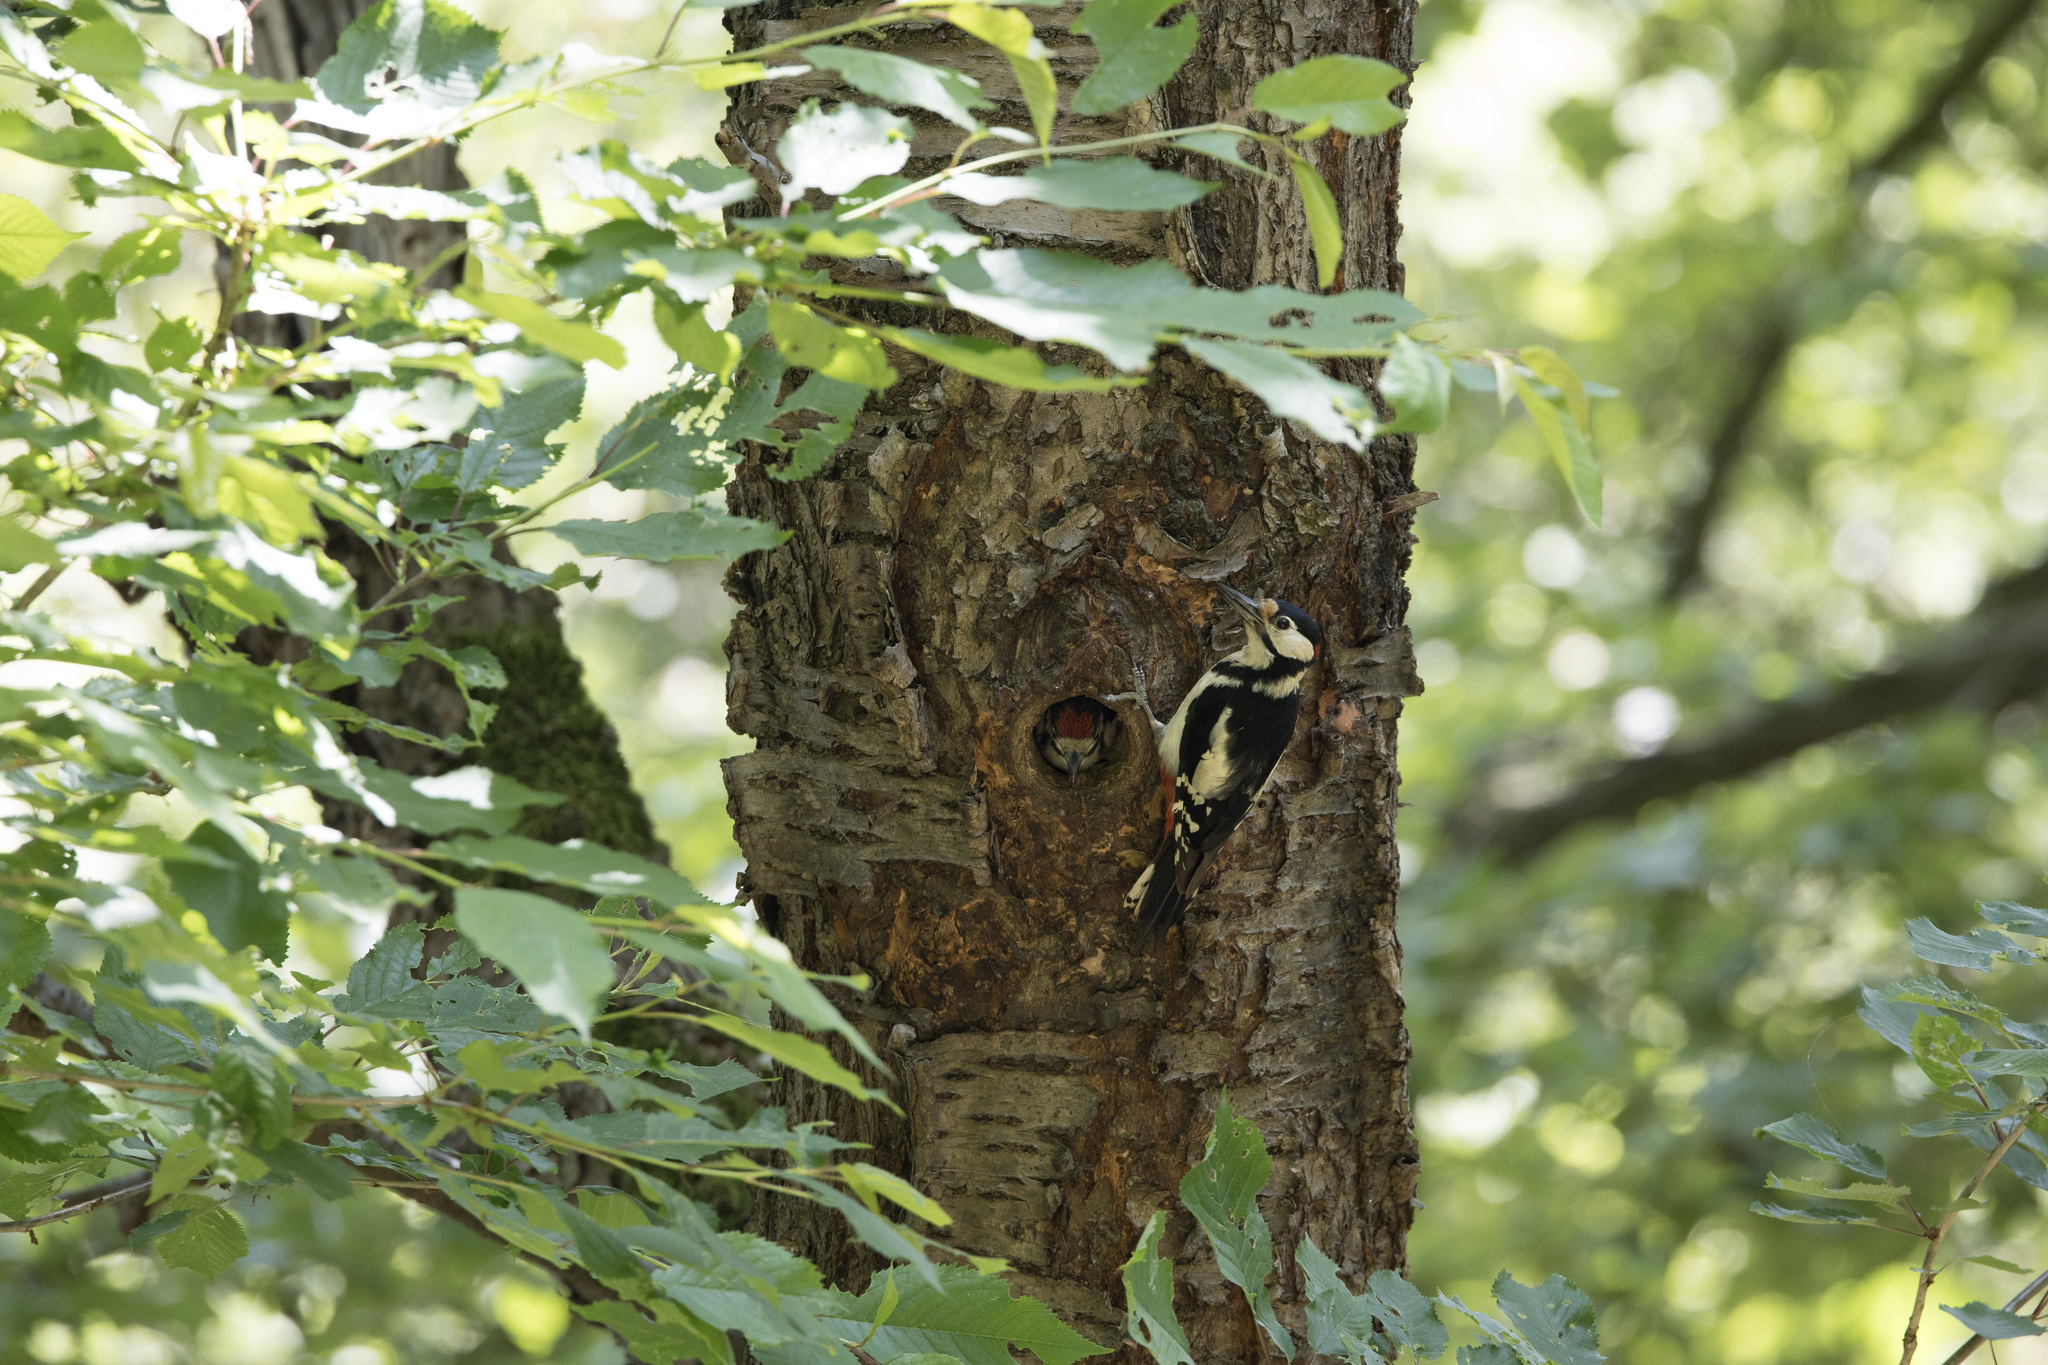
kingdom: Animalia
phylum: Chordata
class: Aves
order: Piciformes
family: Picidae
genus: Dendrocopos
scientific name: Dendrocopos major
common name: Great spotted woodpecker
